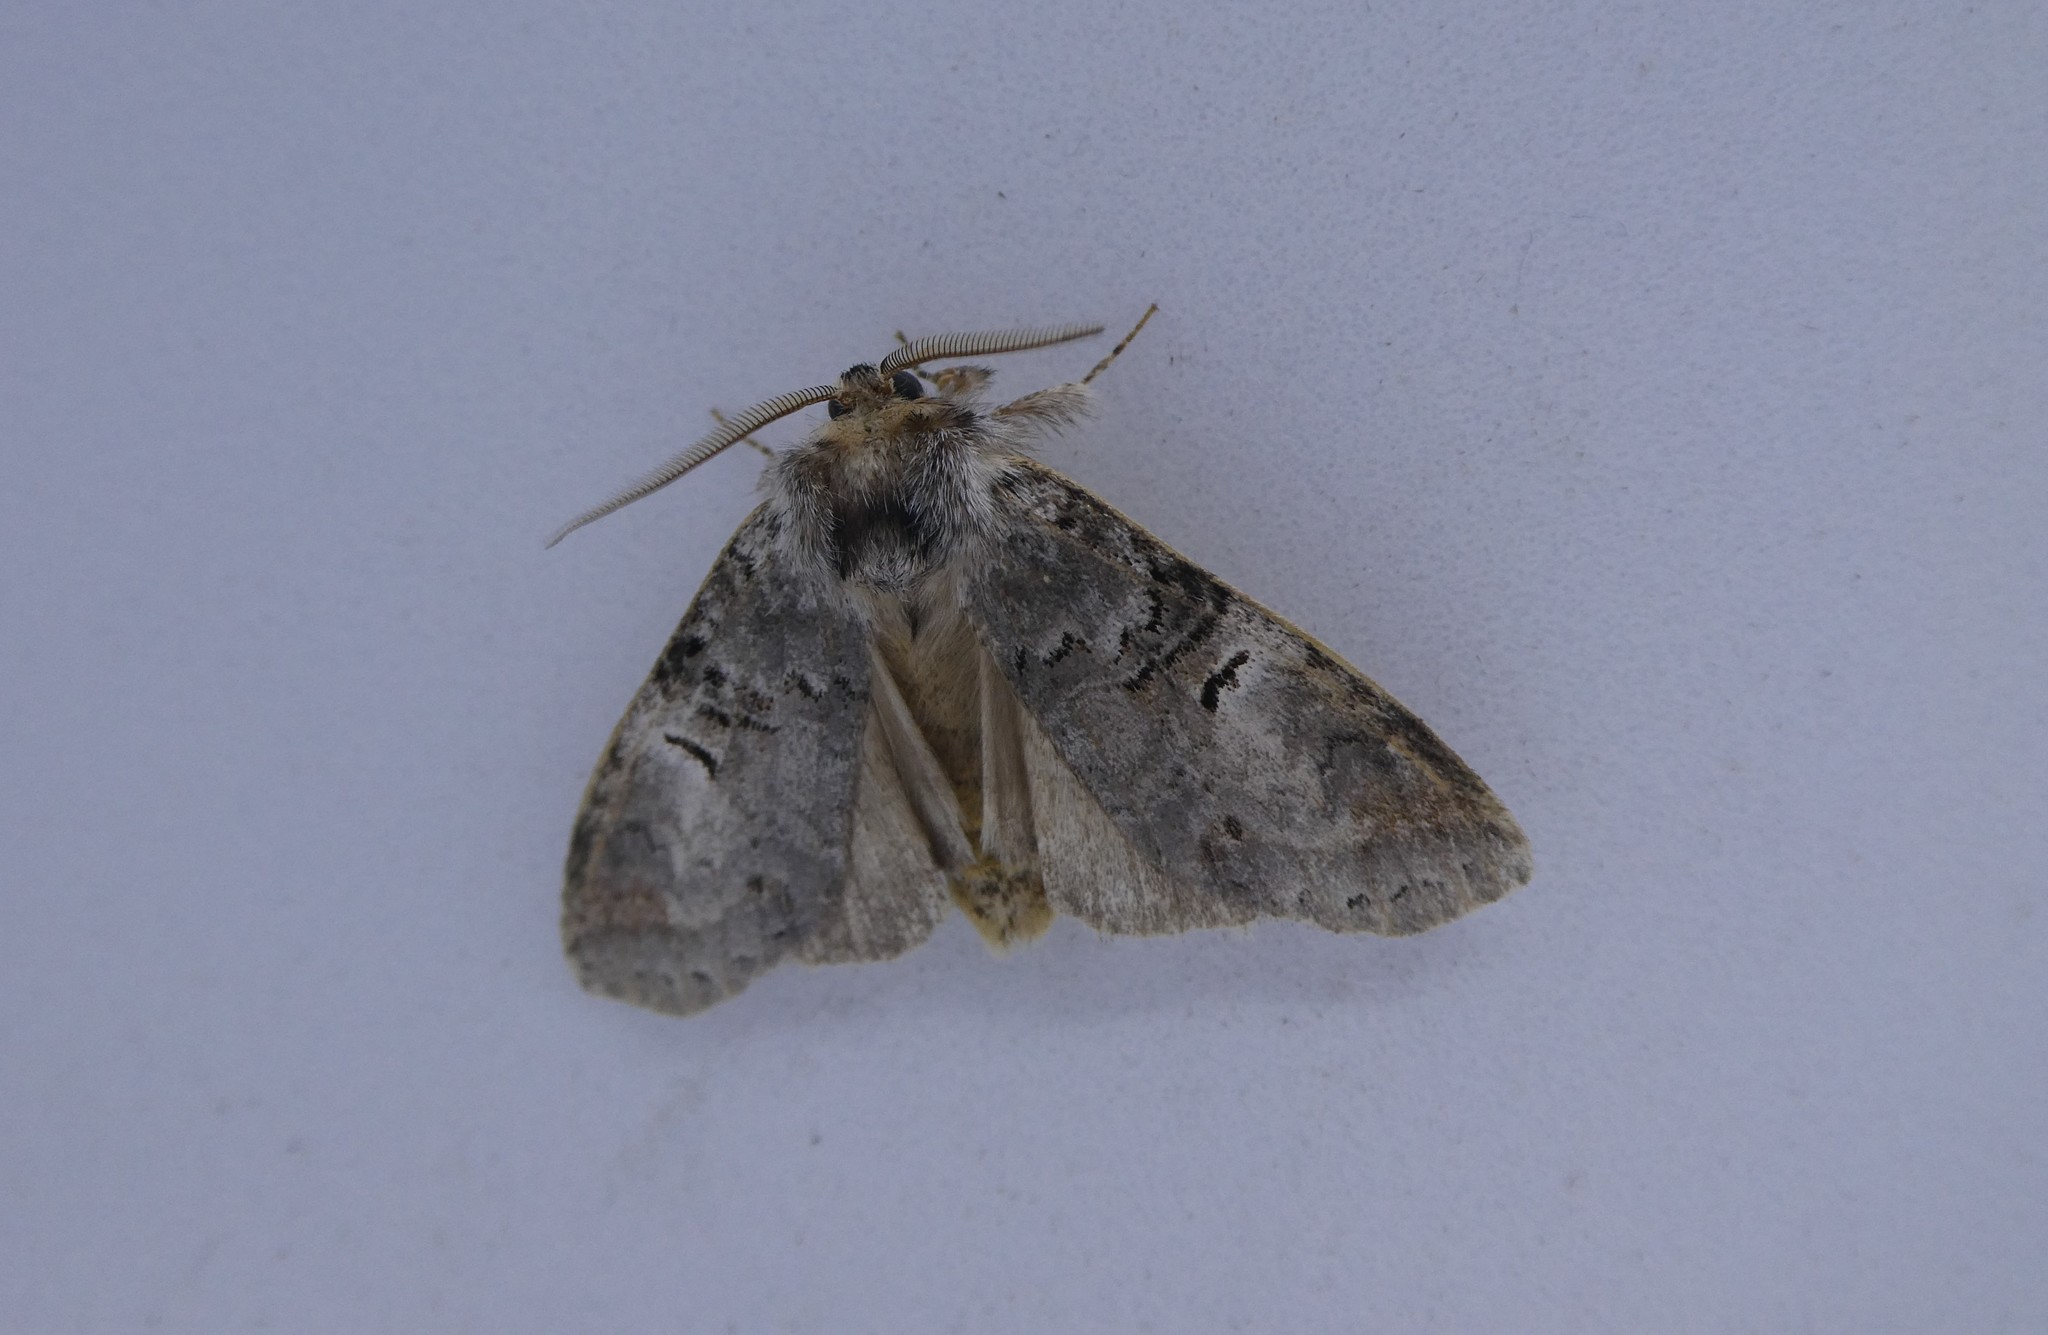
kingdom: Animalia
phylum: Arthropoda
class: Insecta
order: Lepidoptera
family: Notodontidae
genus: Ellida
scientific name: Ellida caniplaga
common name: Linden prominent
